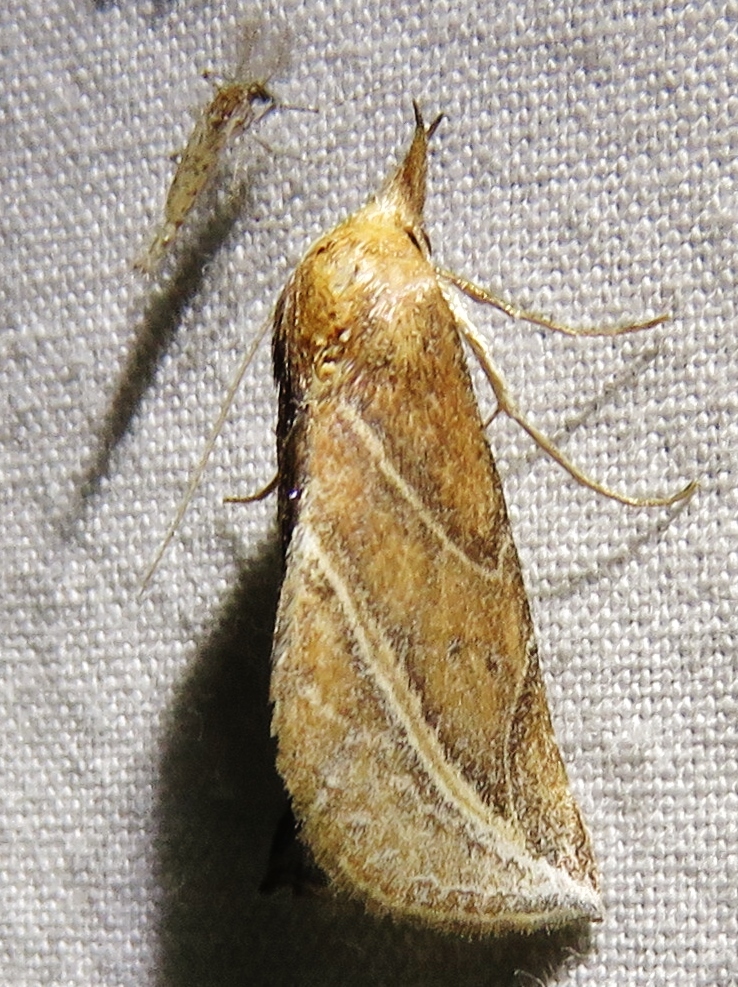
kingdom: Animalia
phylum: Arthropoda
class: Insecta
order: Lepidoptera
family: Erebidae
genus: Phyprosopus
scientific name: Phyprosopus callitrichoides
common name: Curved-lined owlet
